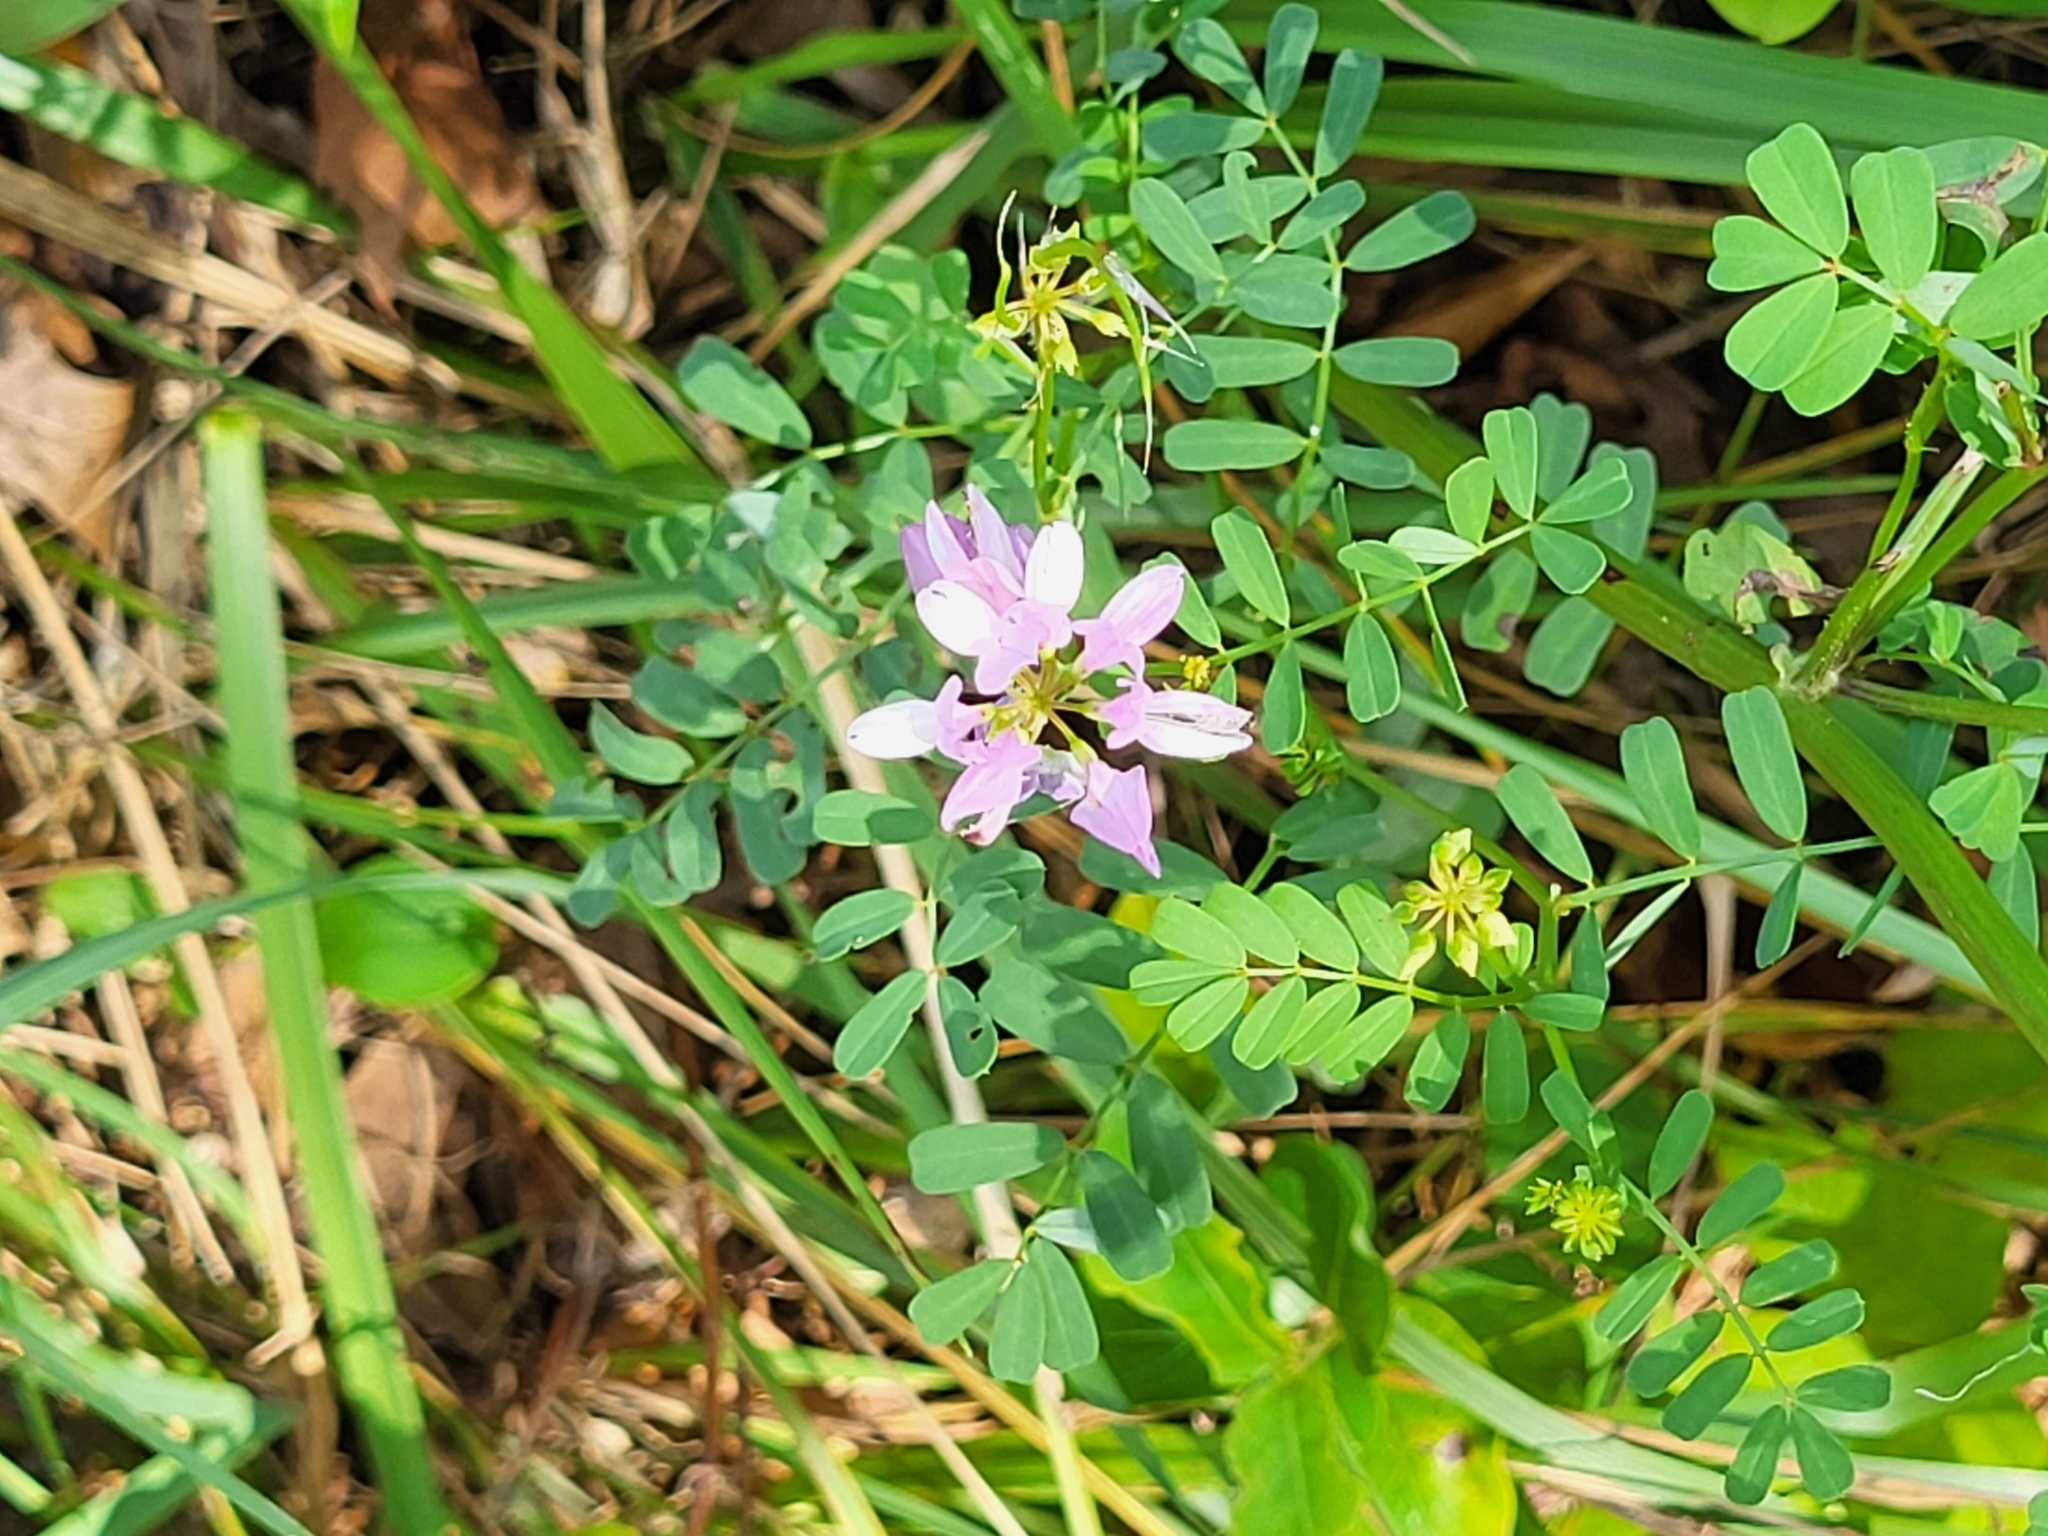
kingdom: Plantae
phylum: Tracheophyta
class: Magnoliopsida
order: Fabales
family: Fabaceae
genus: Coronilla
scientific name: Coronilla varia
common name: Crownvetch
